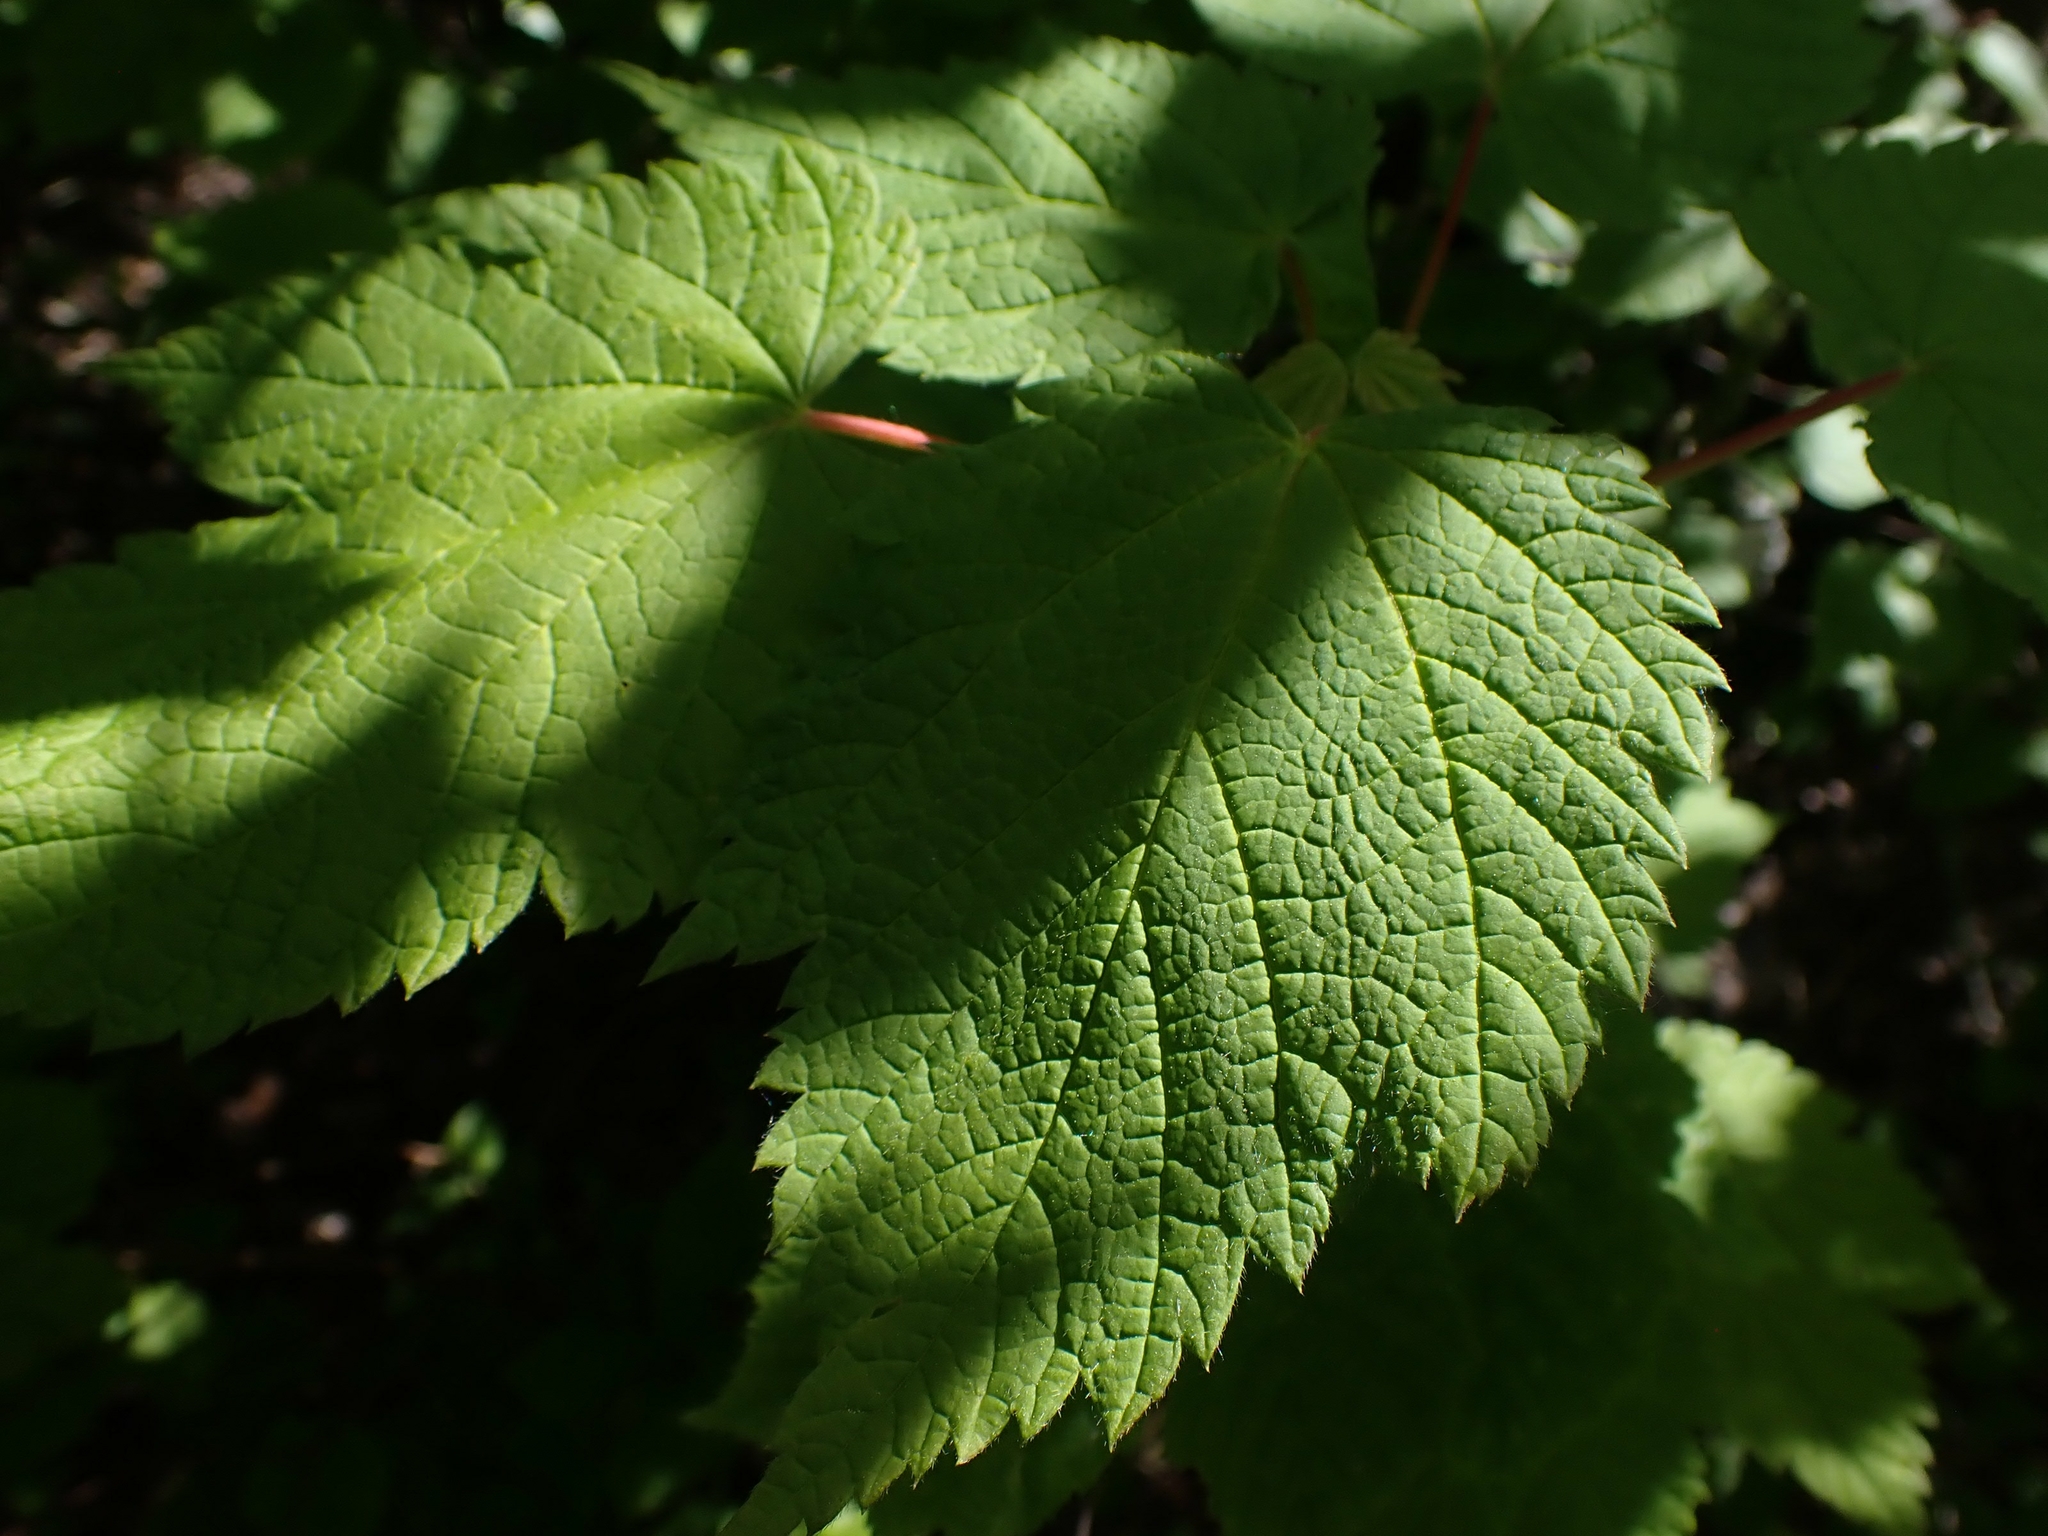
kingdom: Plantae
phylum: Tracheophyta
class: Magnoliopsida
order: Sapindales
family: Sapindaceae
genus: Acer
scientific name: Acer spicatum
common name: Mountain maple
